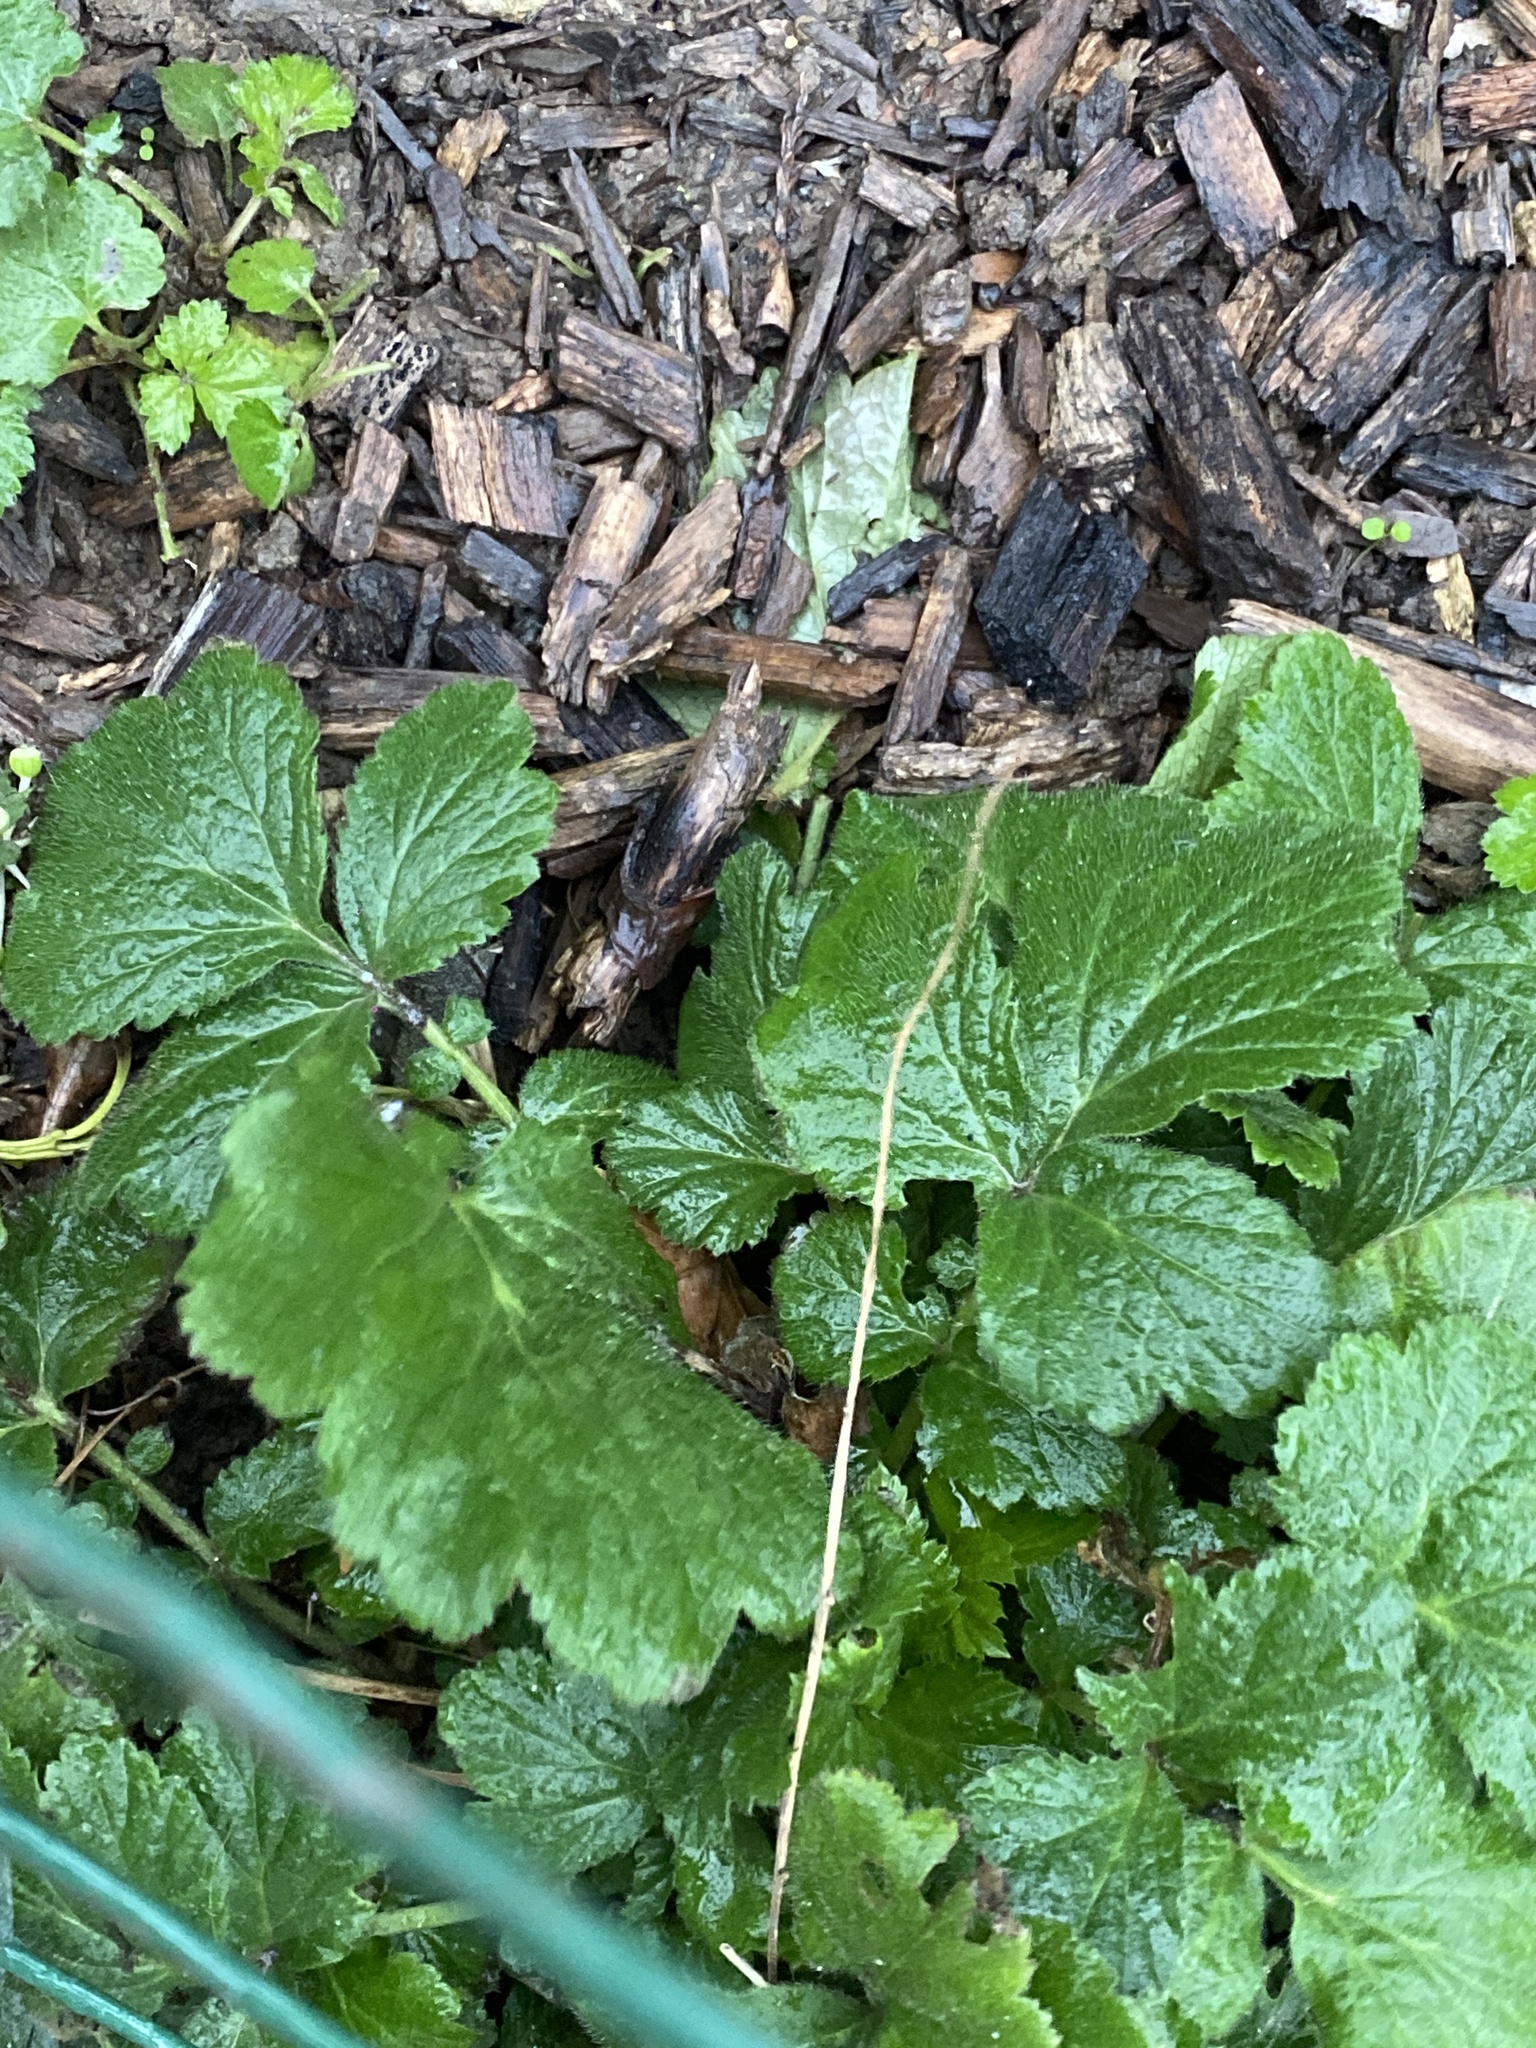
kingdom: Plantae
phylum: Tracheophyta
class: Magnoliopsida
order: Rosales
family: Rosaceae
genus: Geum
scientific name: Geum urbanum
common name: Wood avens
